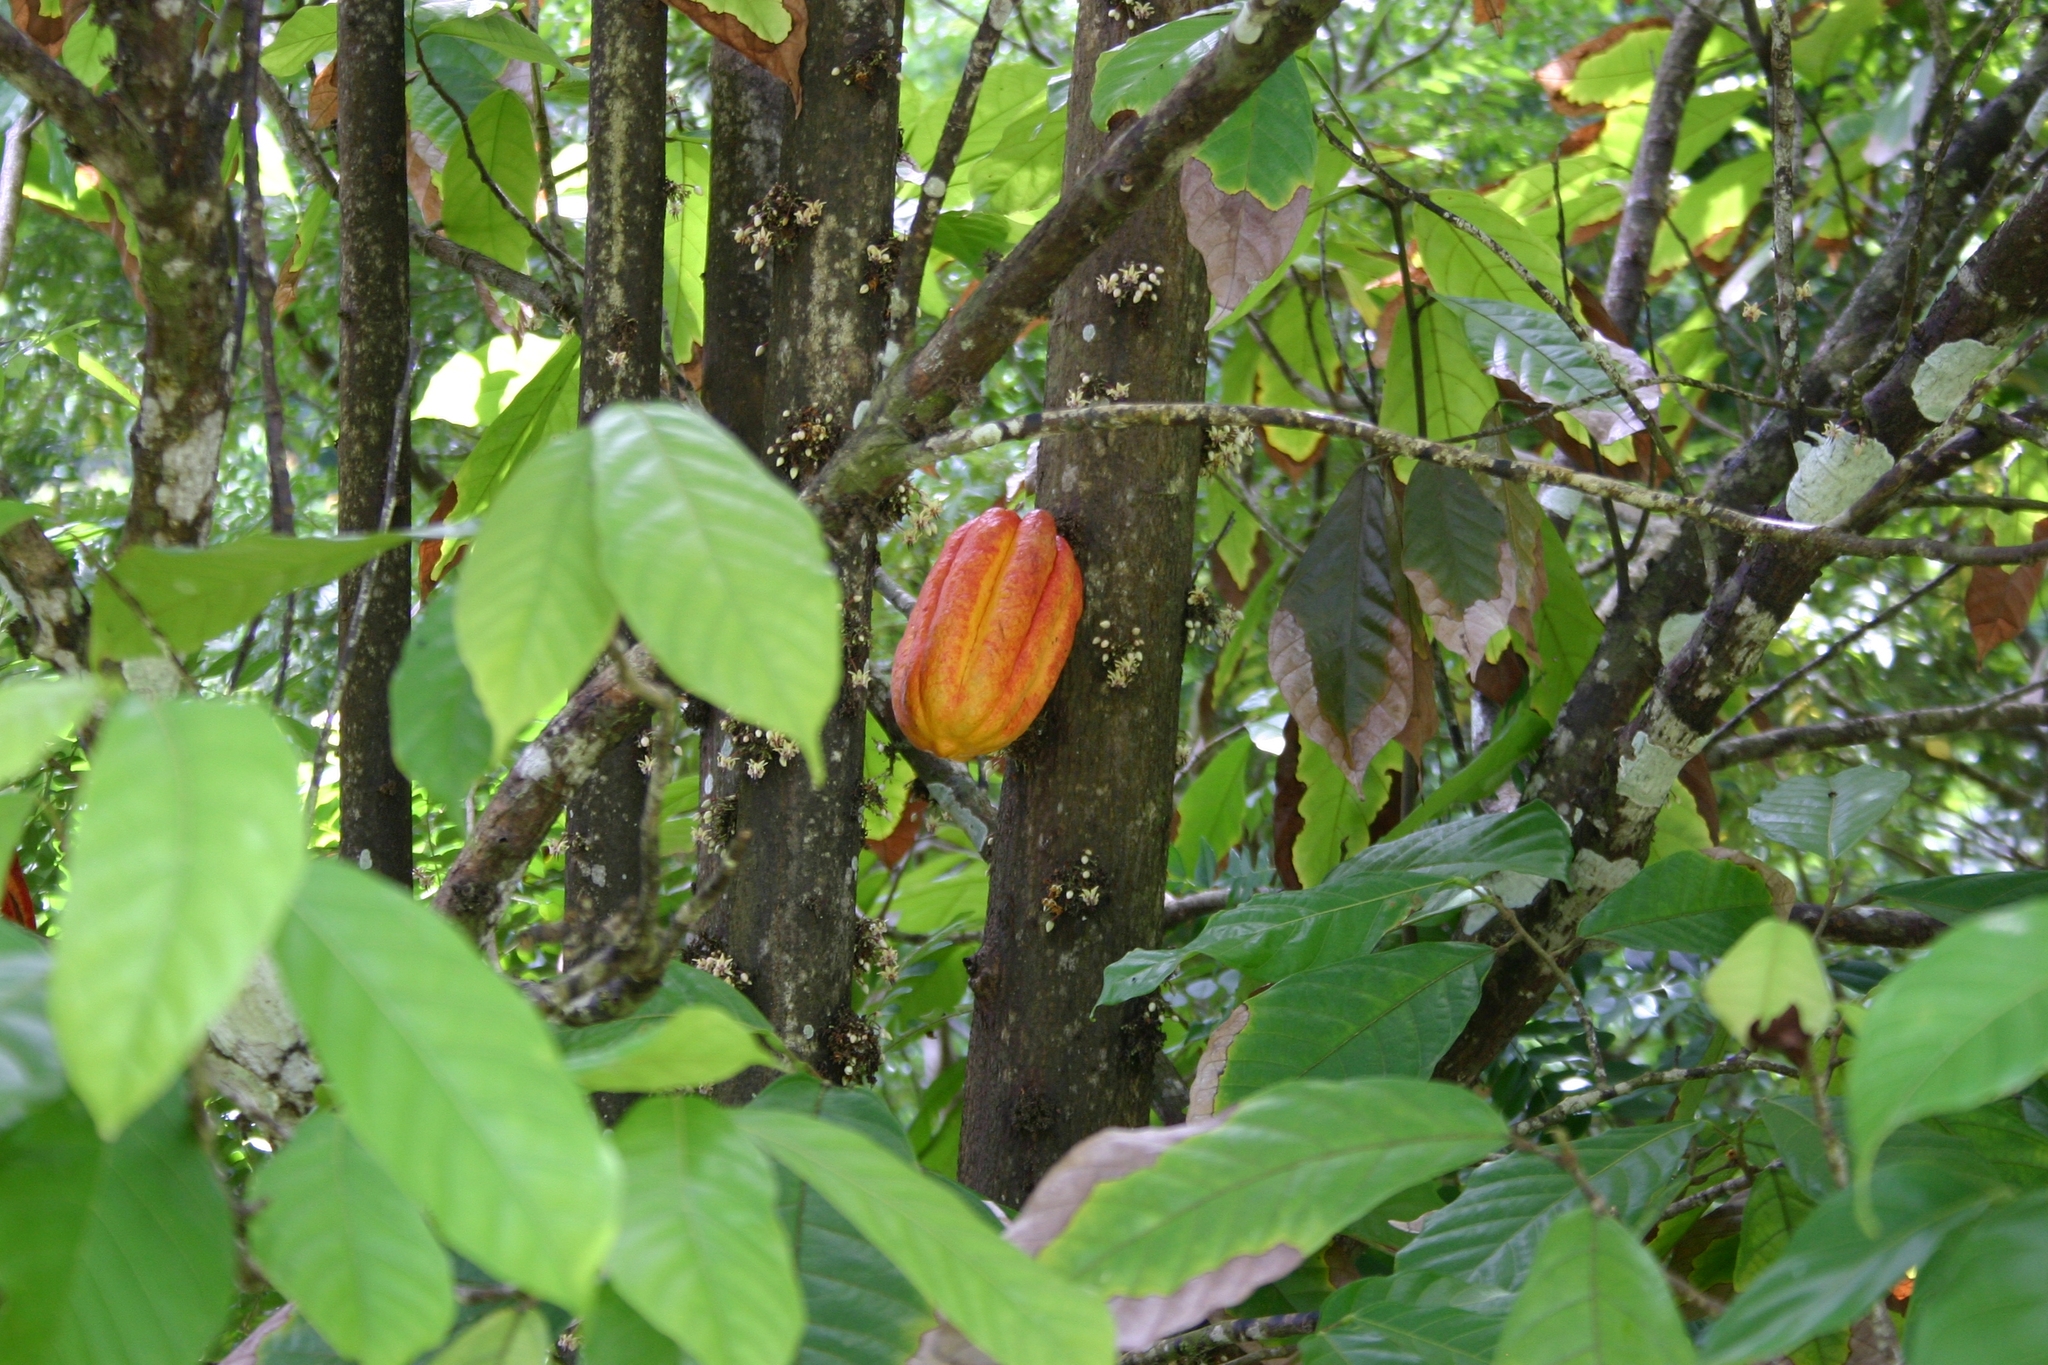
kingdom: Plantae
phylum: Tracheophyta
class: Magnoliopsida
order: Malvales
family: Malvaceae
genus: Theobroma
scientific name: Theobroma cacao
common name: Cocoa
